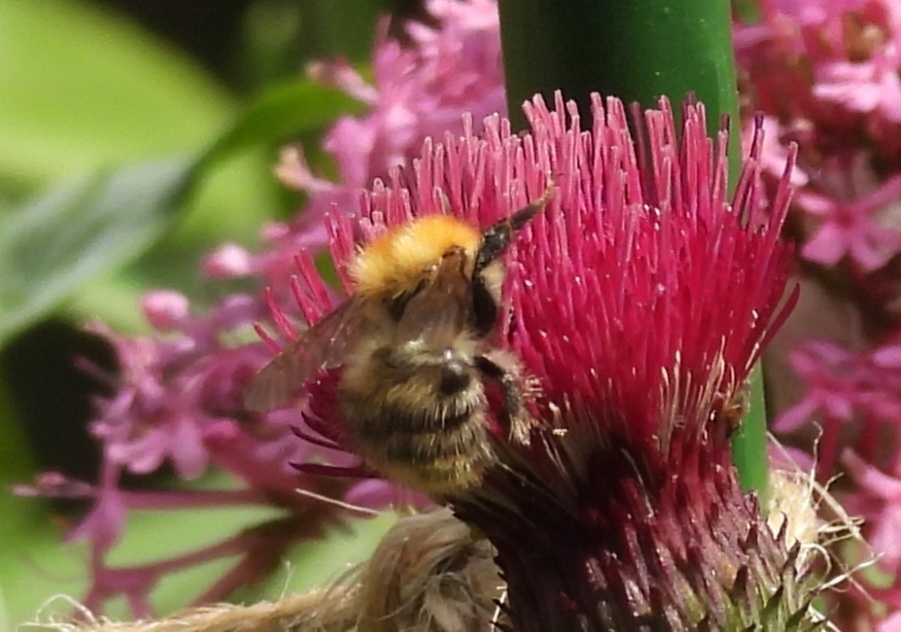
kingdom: Animalia
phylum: Arthropoda
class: Insecta
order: Hymenoptera
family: Apidae
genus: Bombus
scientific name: Bombus pascuorum
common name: Common carder bee
